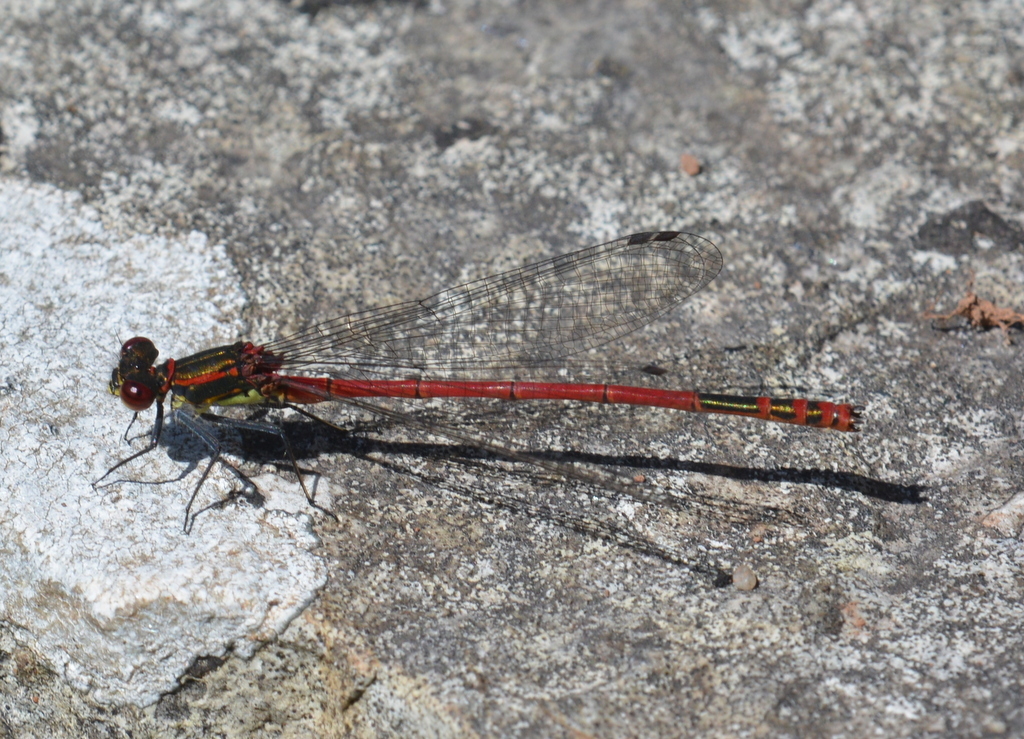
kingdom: Animalia
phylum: Arthropoda
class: Insecta
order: Odonata
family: Coenagrionidae
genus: Pyrrhosoma
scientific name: Pyrrhosoma nymphula
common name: Large red damsel
